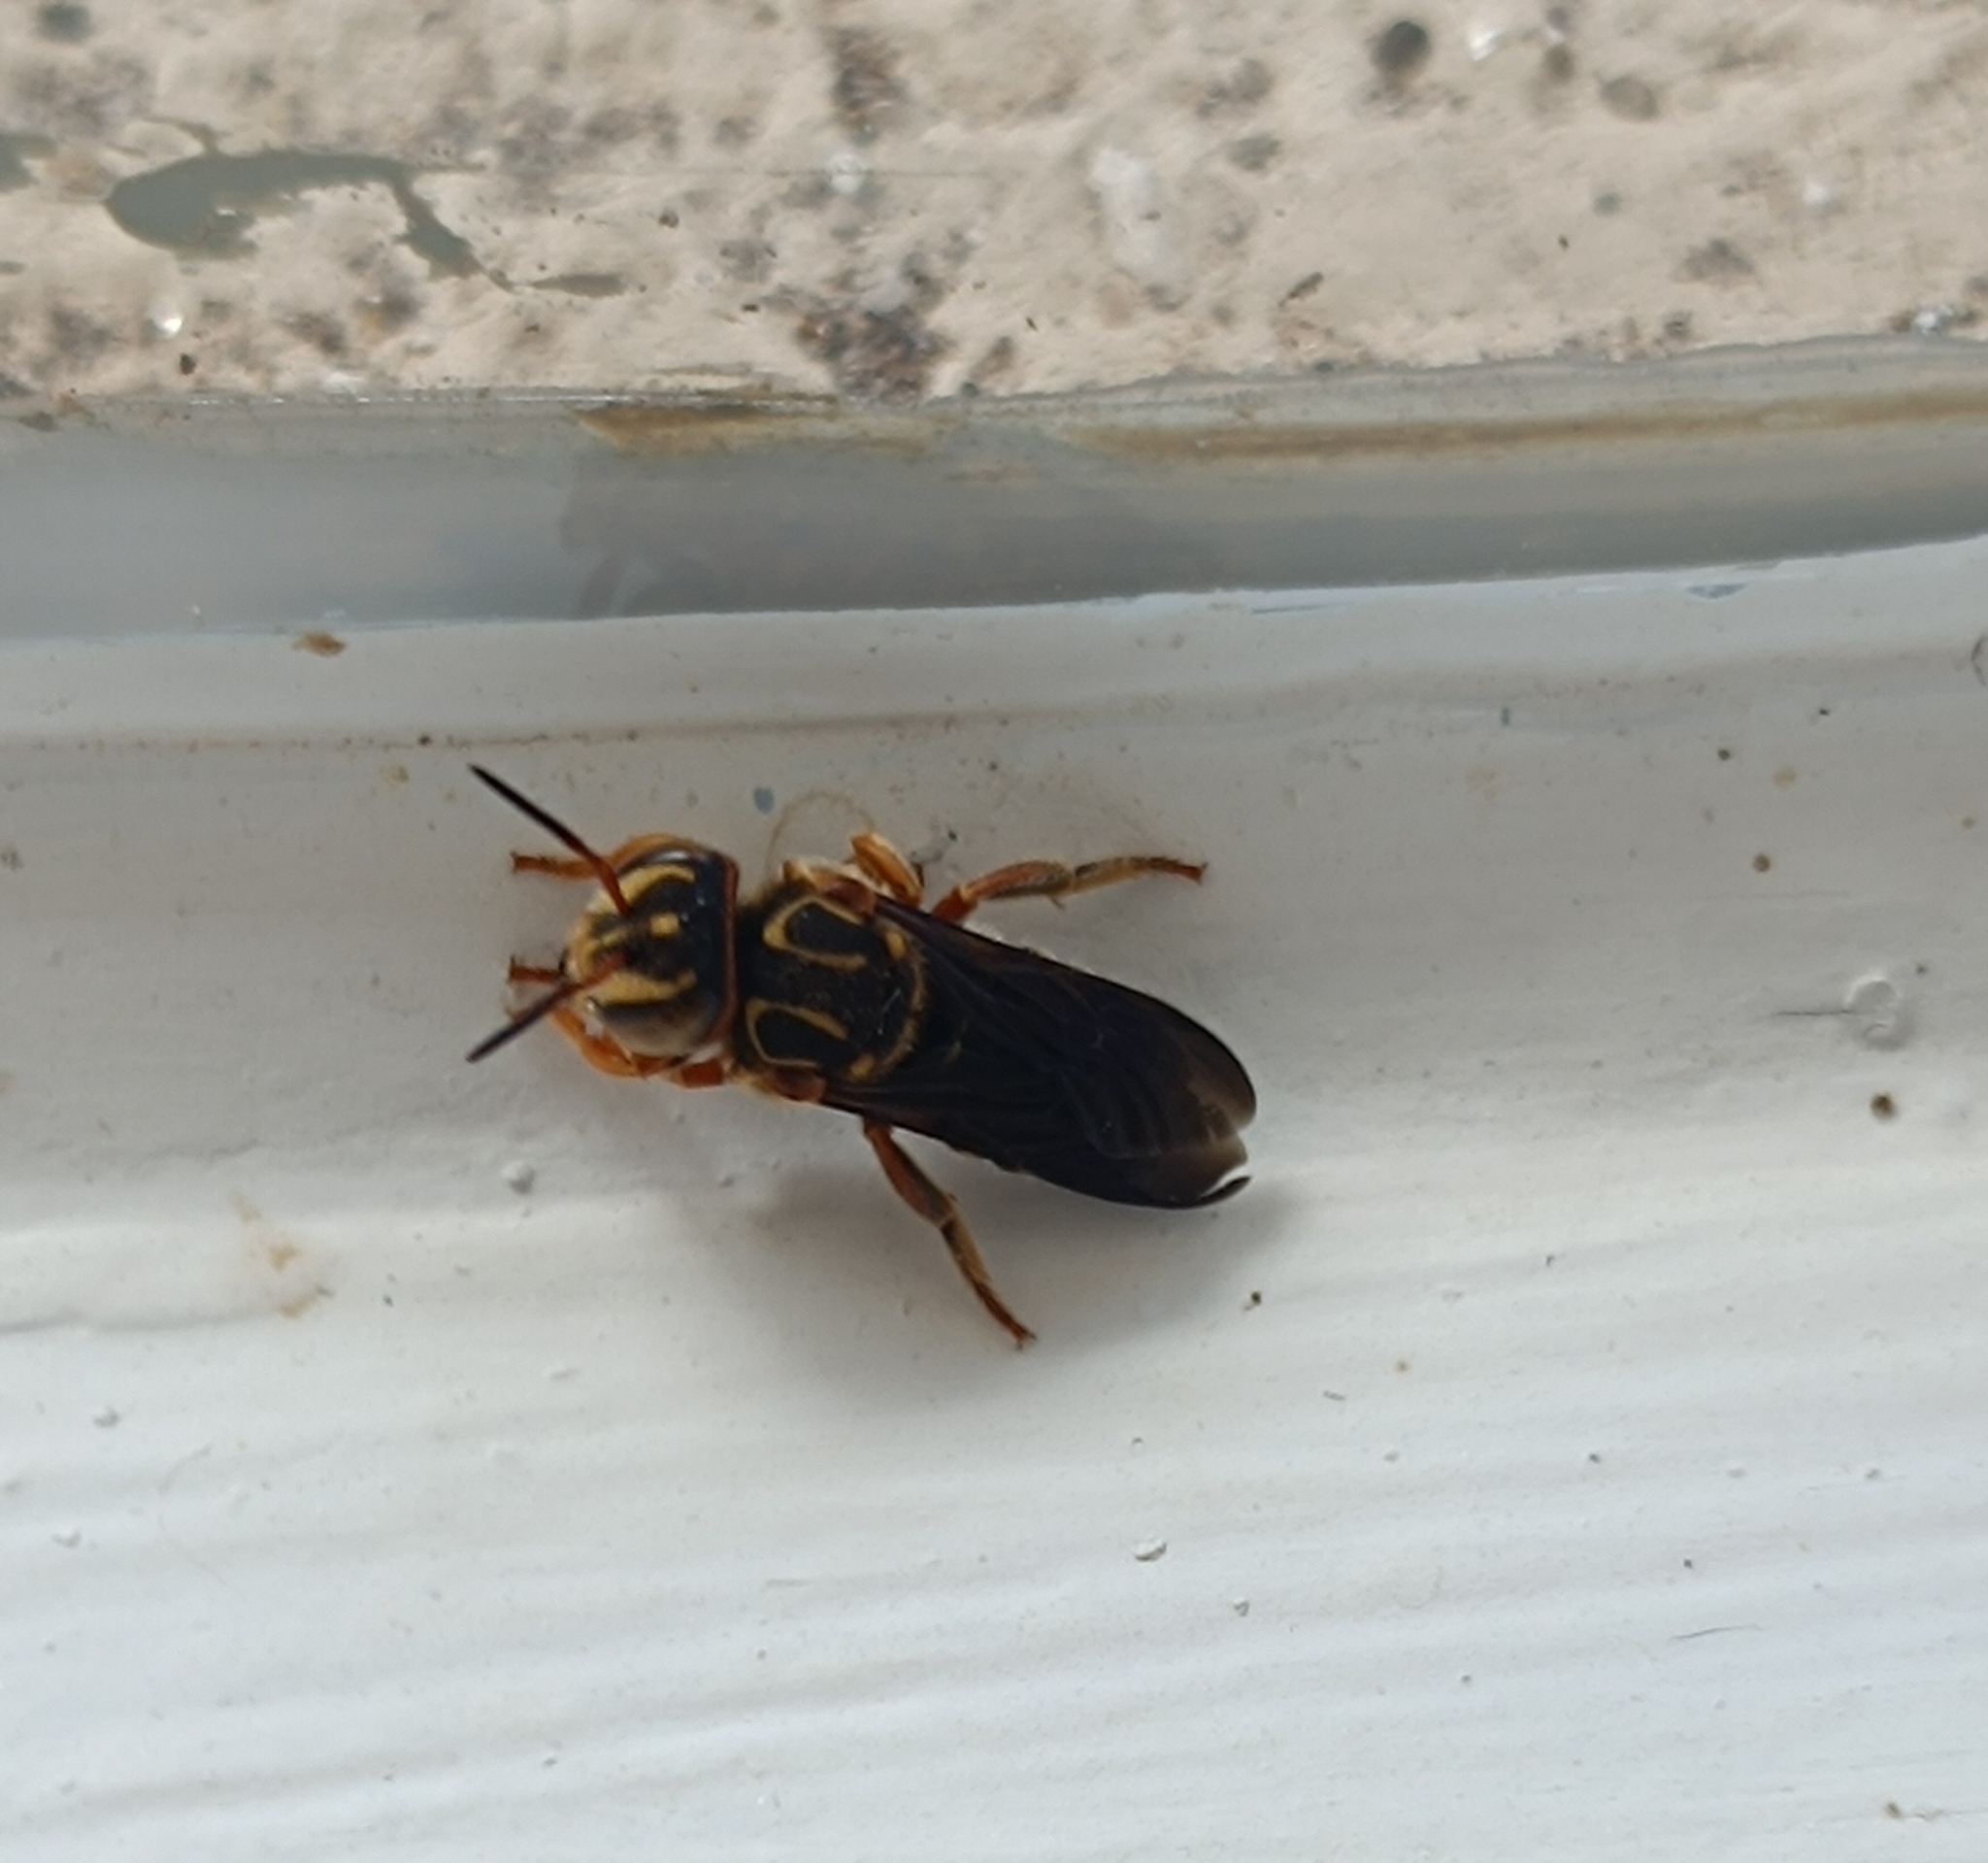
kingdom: Animalia
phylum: Arthropoda
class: Insecta
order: Hymenoptera
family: Megachilidae
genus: Epanthidium
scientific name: Epanthidium tigrinum
